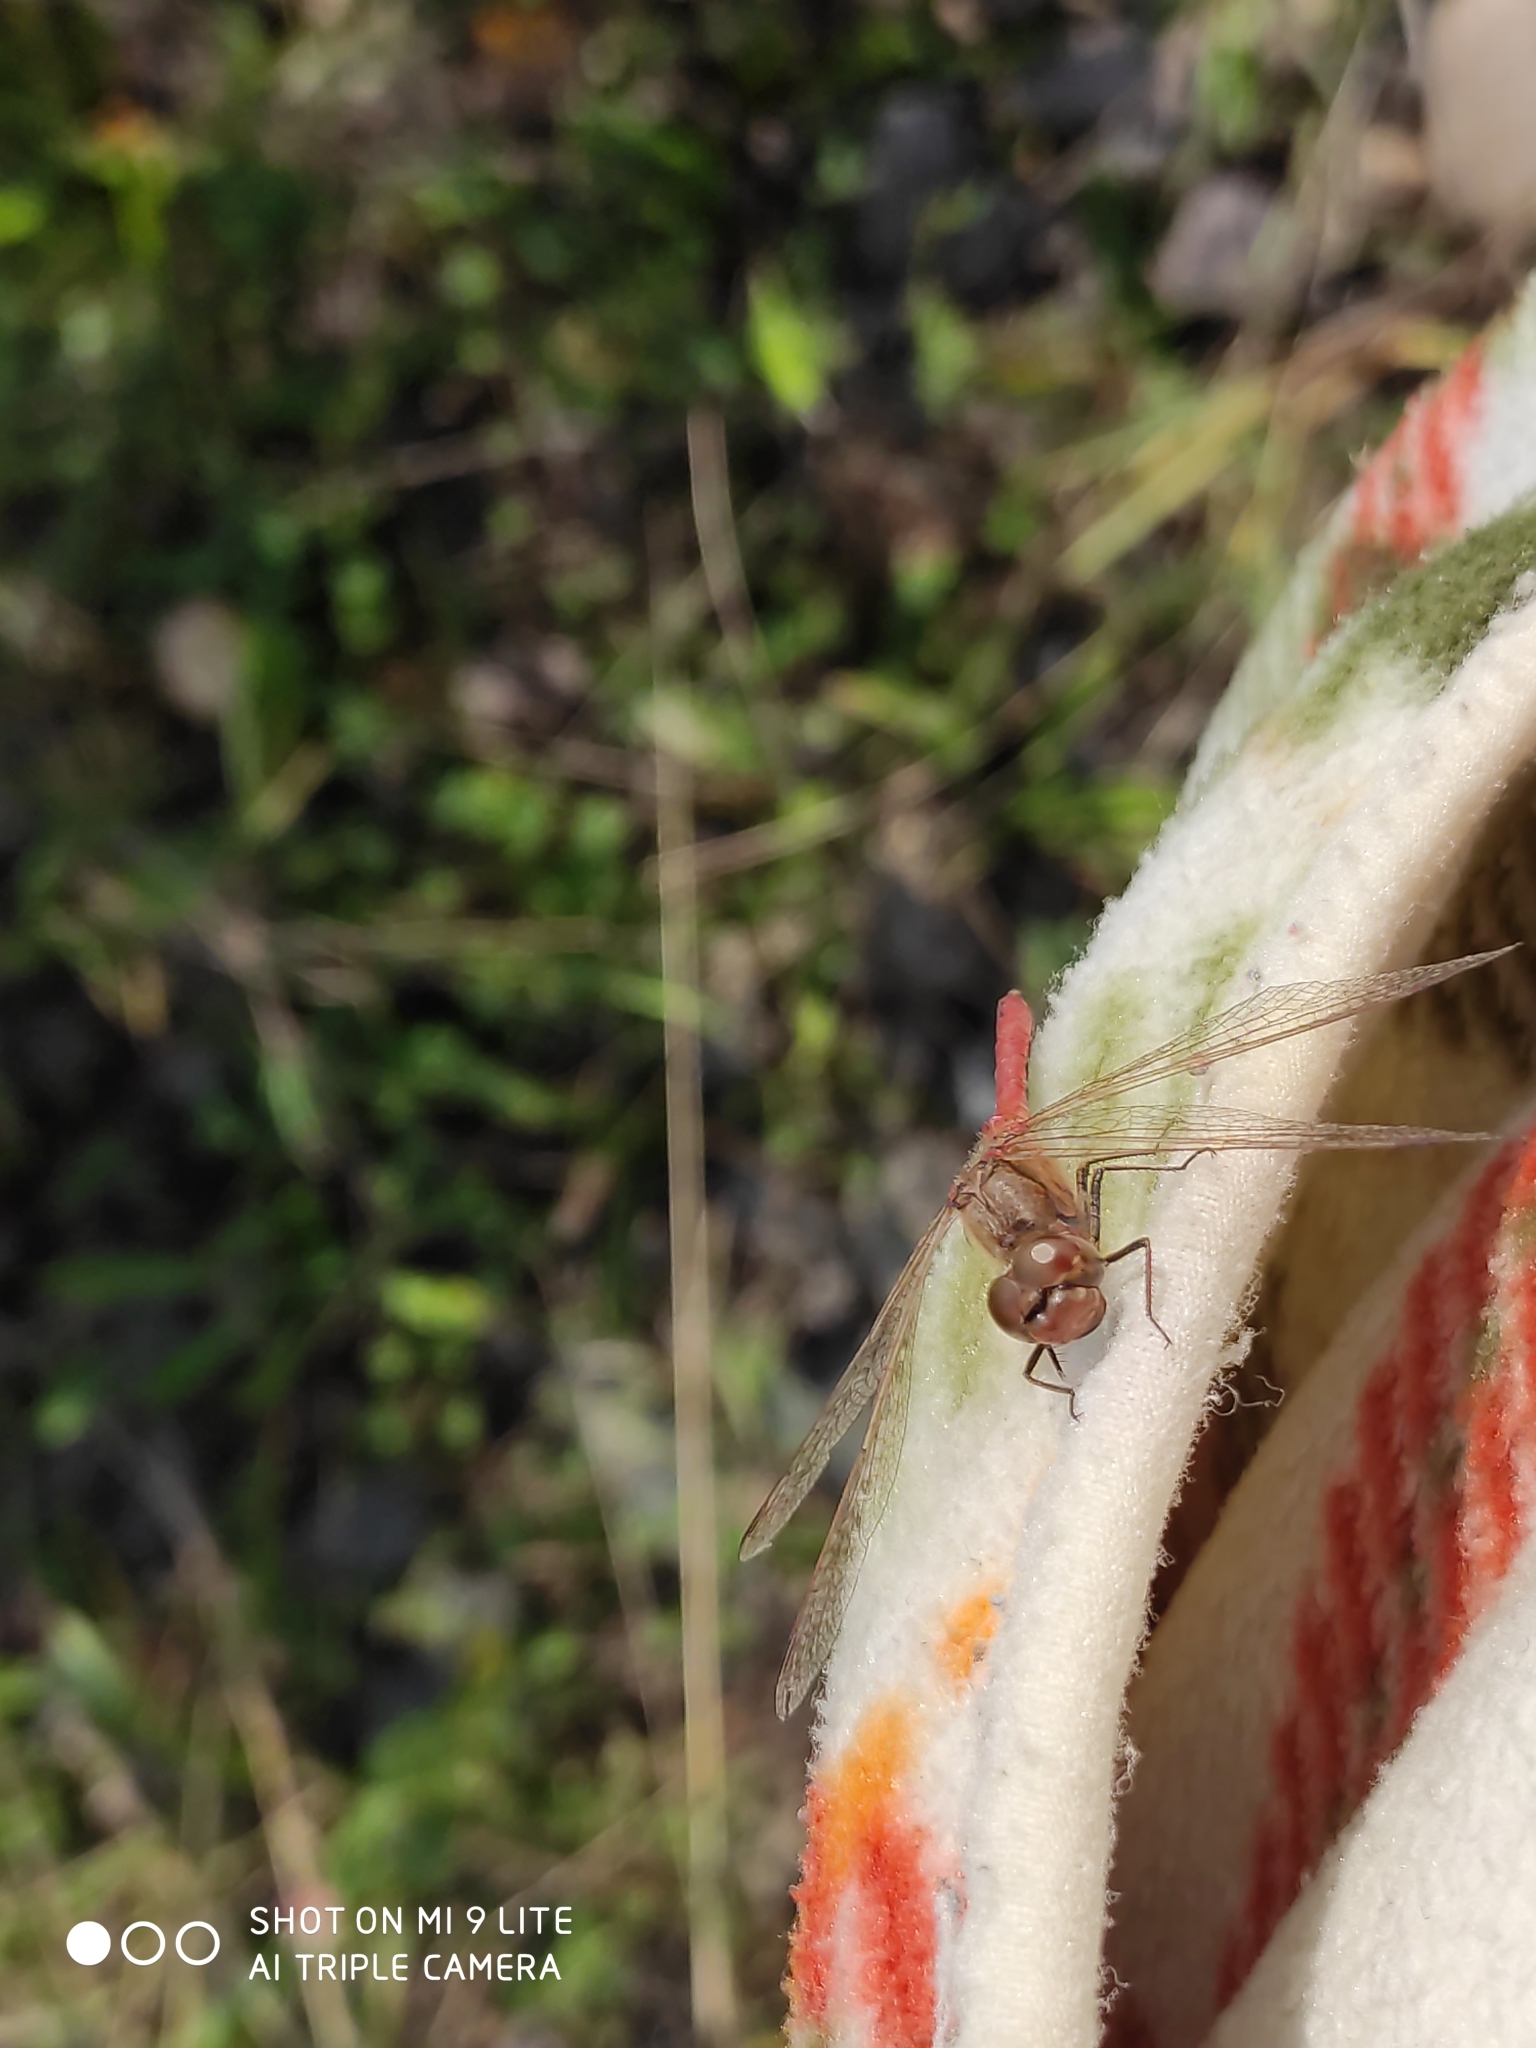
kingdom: Animalia
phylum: Arthropoda
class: Insecta
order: Odonata
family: Libellulidae
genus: Sympetrum
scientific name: Sympetrum vulgatum
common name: Vagrant darter
